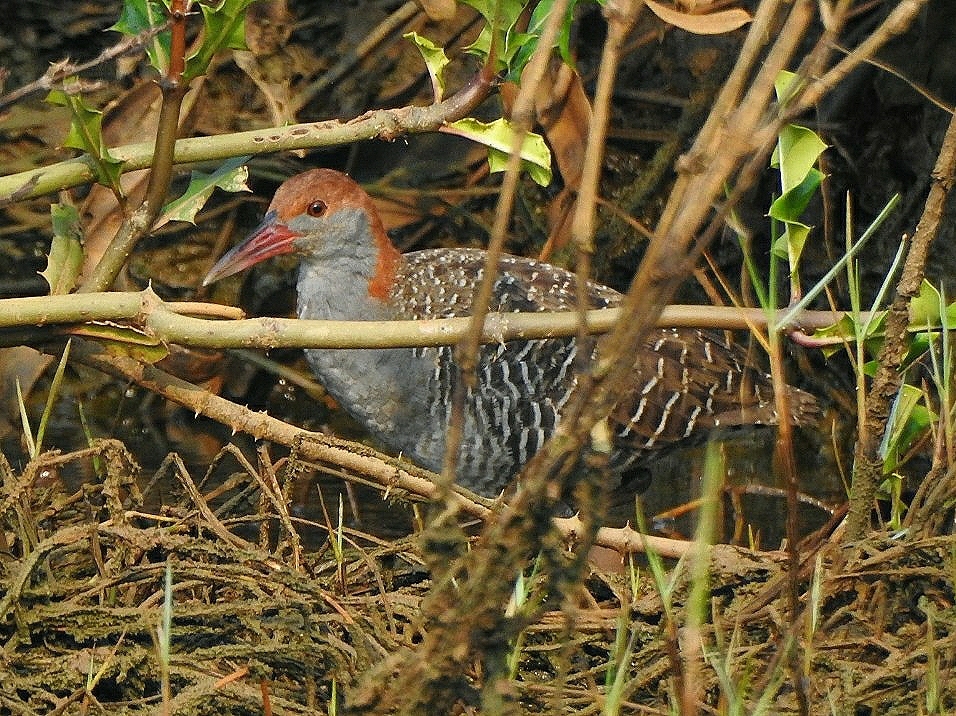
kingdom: Animalia
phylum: Chordata
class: Aves
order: Gruiformes
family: Rallidae
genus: Gallirallus
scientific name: Gallirallus striatus
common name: Slaty-breasted rail
